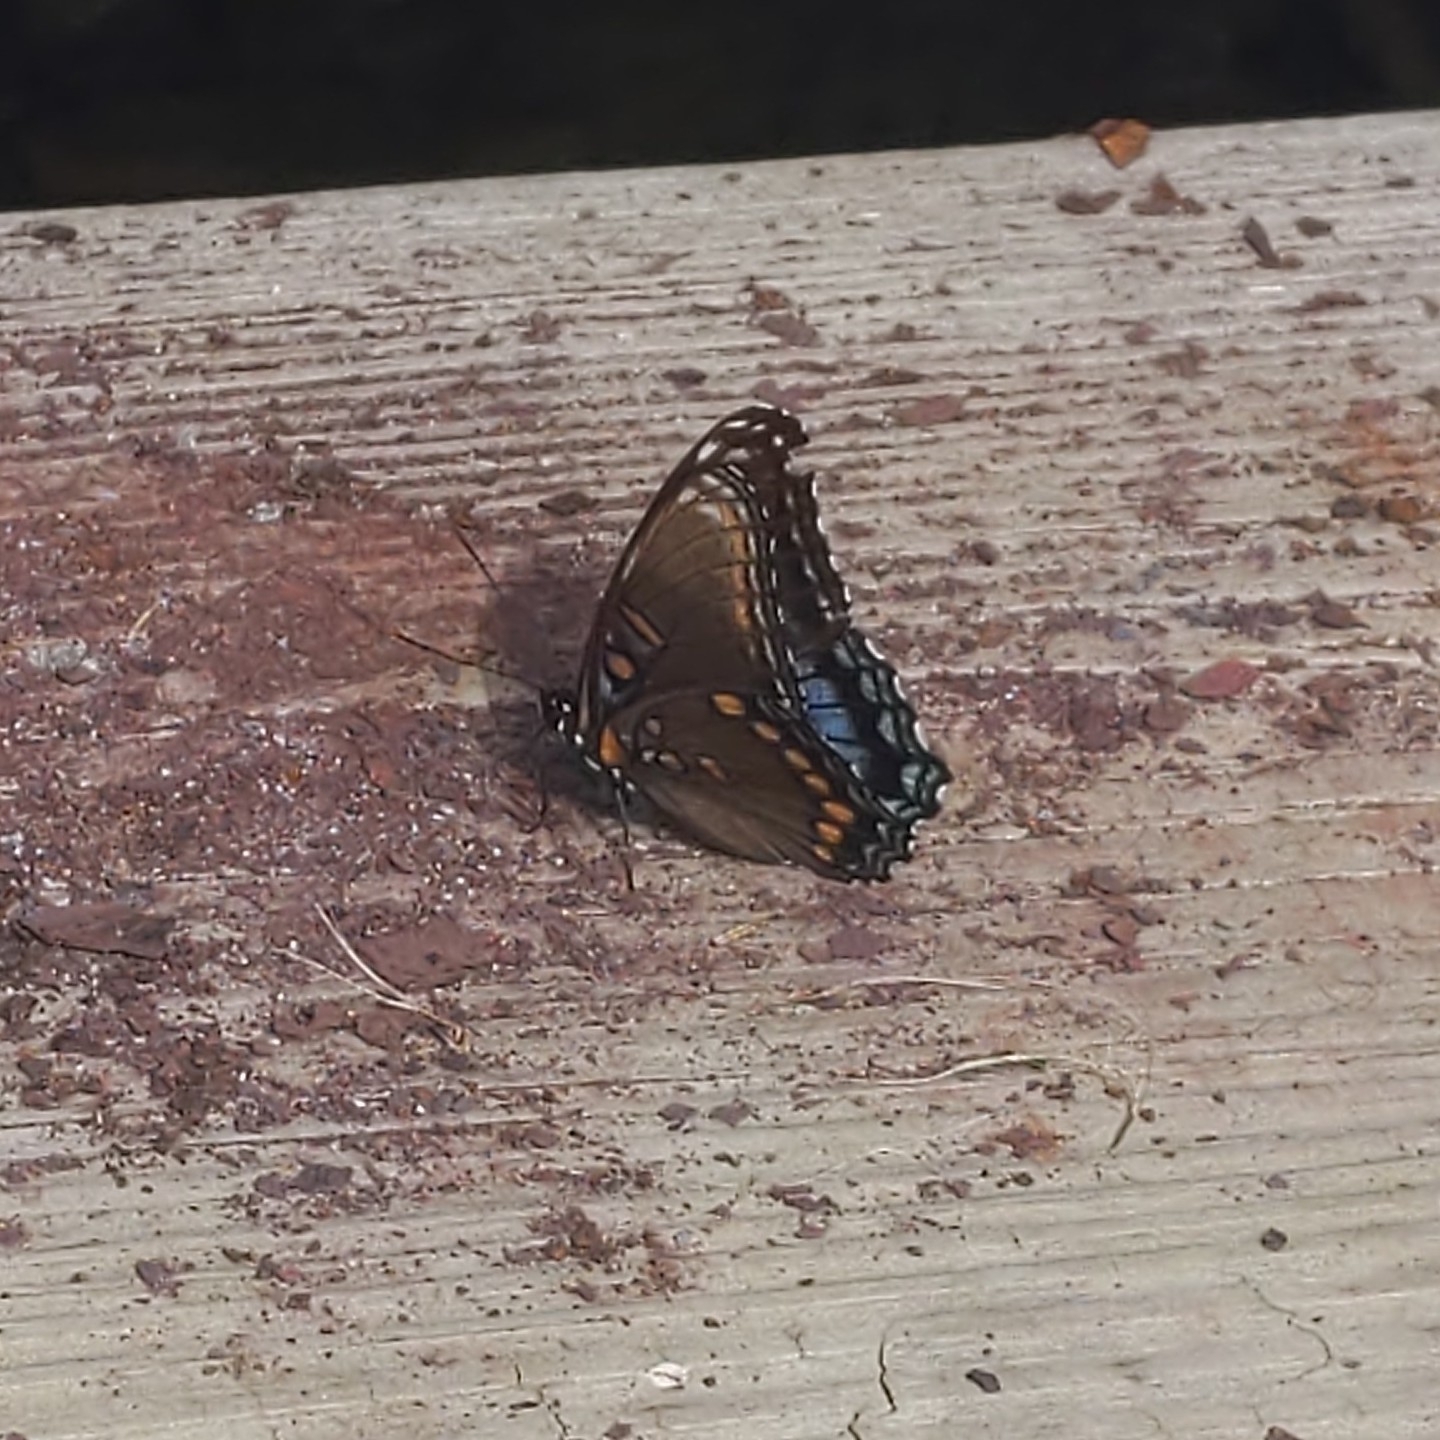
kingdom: Animalia
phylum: Arthropoda
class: Insecta
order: Lepidoptera
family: Nymphalidae
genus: Limenitis
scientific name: Limenitis arthemis
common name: Red-spotted admiral
